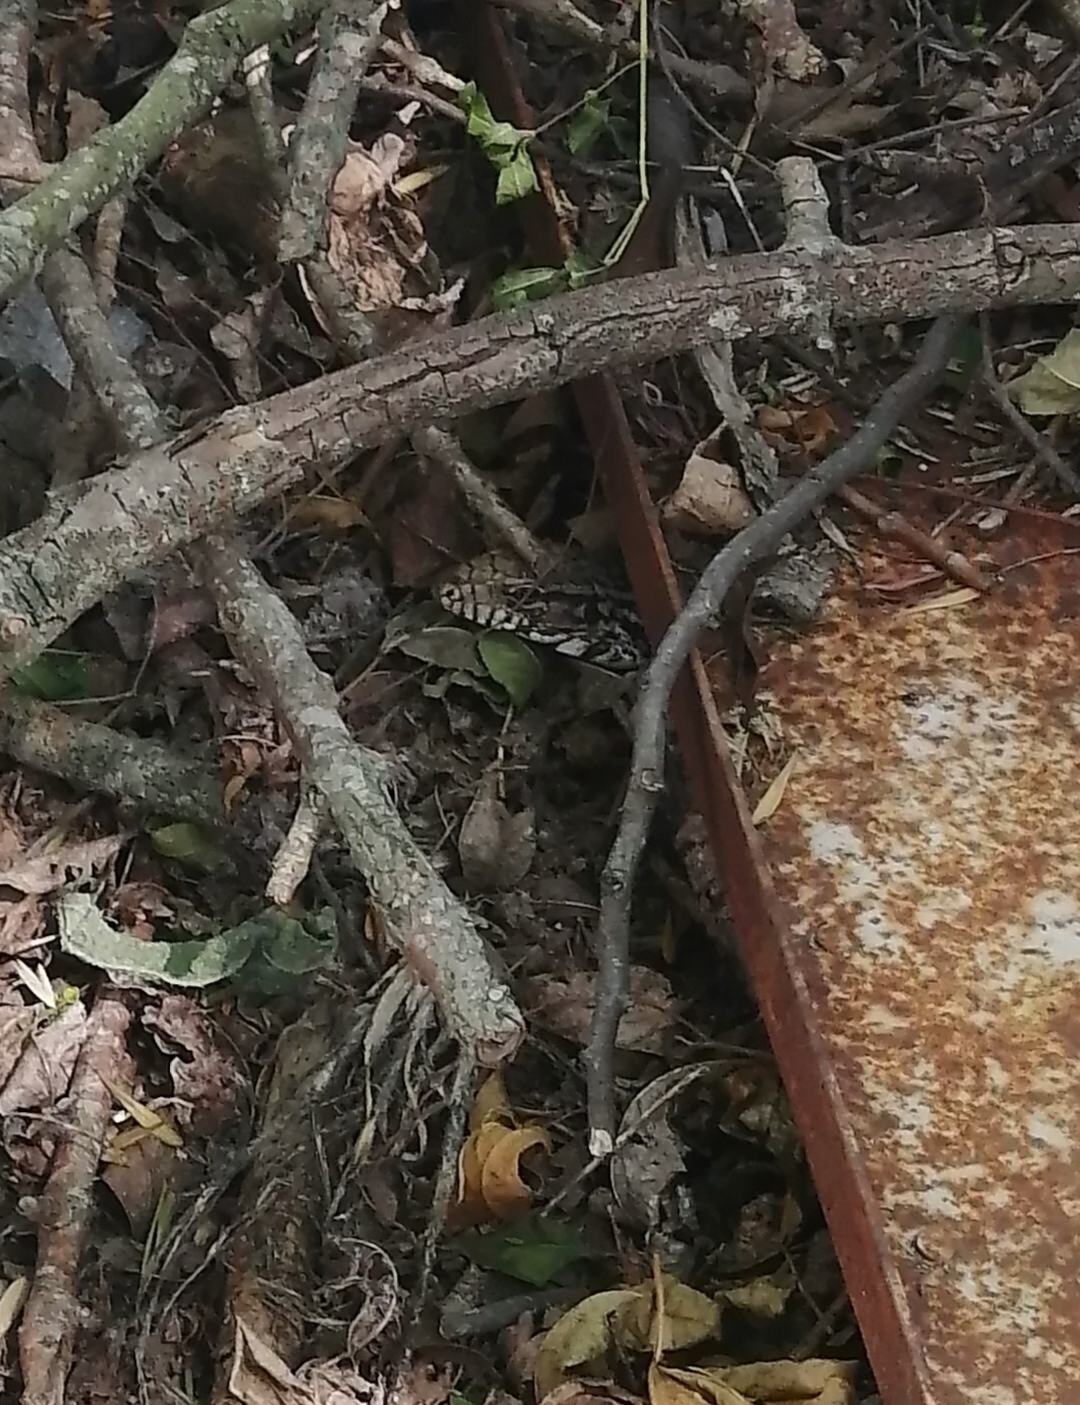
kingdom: Animalia
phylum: Chordata
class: Squamata
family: Teiidae
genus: Salvator
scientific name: Salvator merianae
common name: Argentine black and white tegu
